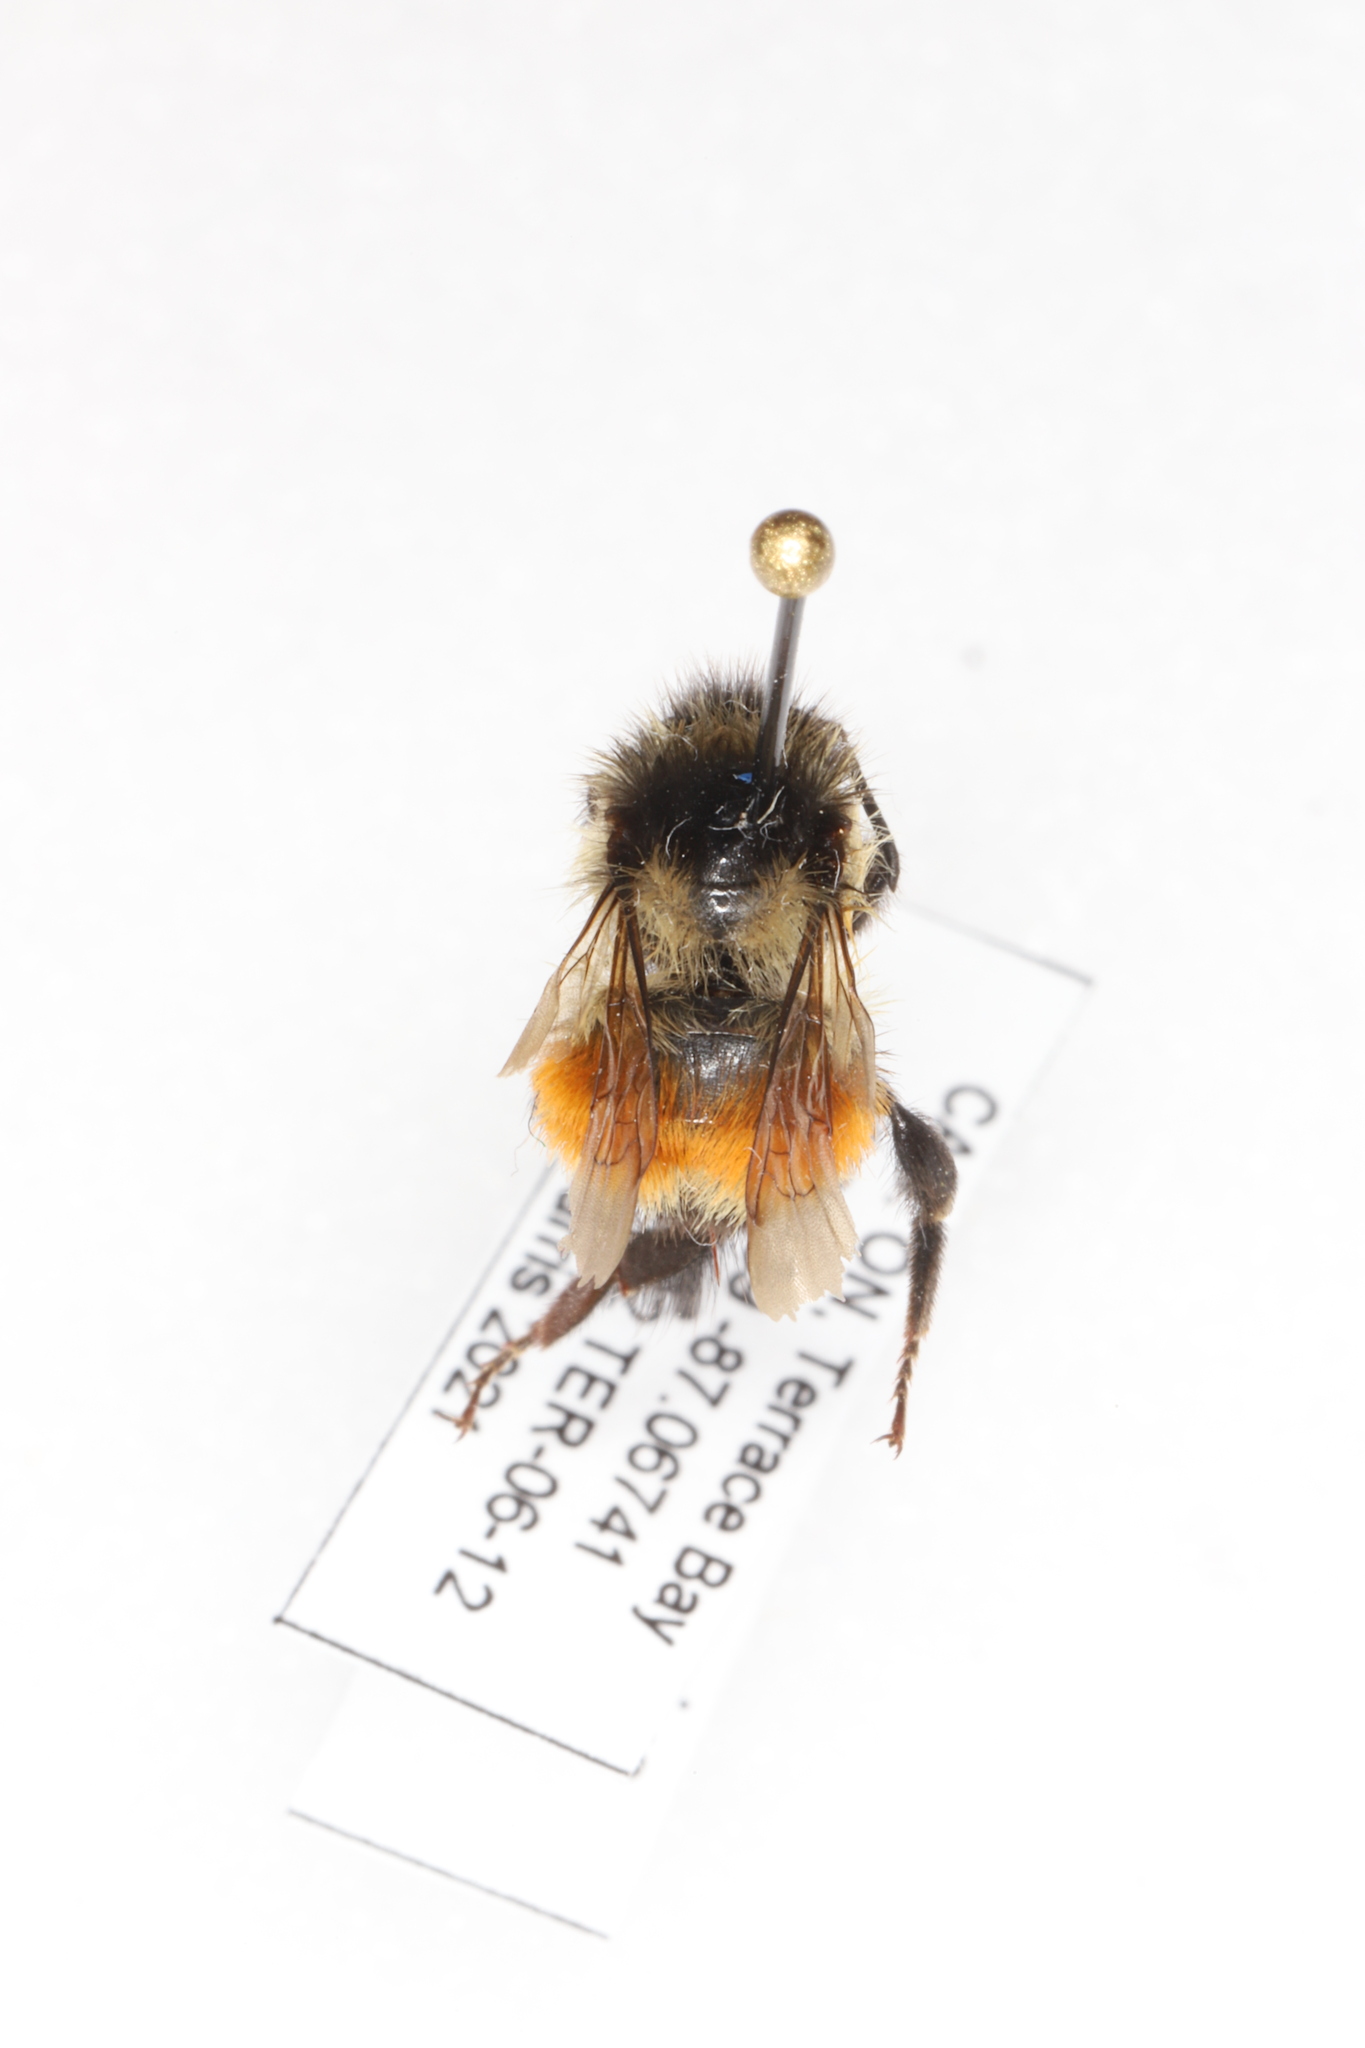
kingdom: Animalia
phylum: Arthropoda
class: Insecta
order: Hymenoptera
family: Apidae
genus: Bombus
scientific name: Bombus ternarius
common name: Tri-colored bumble bee
